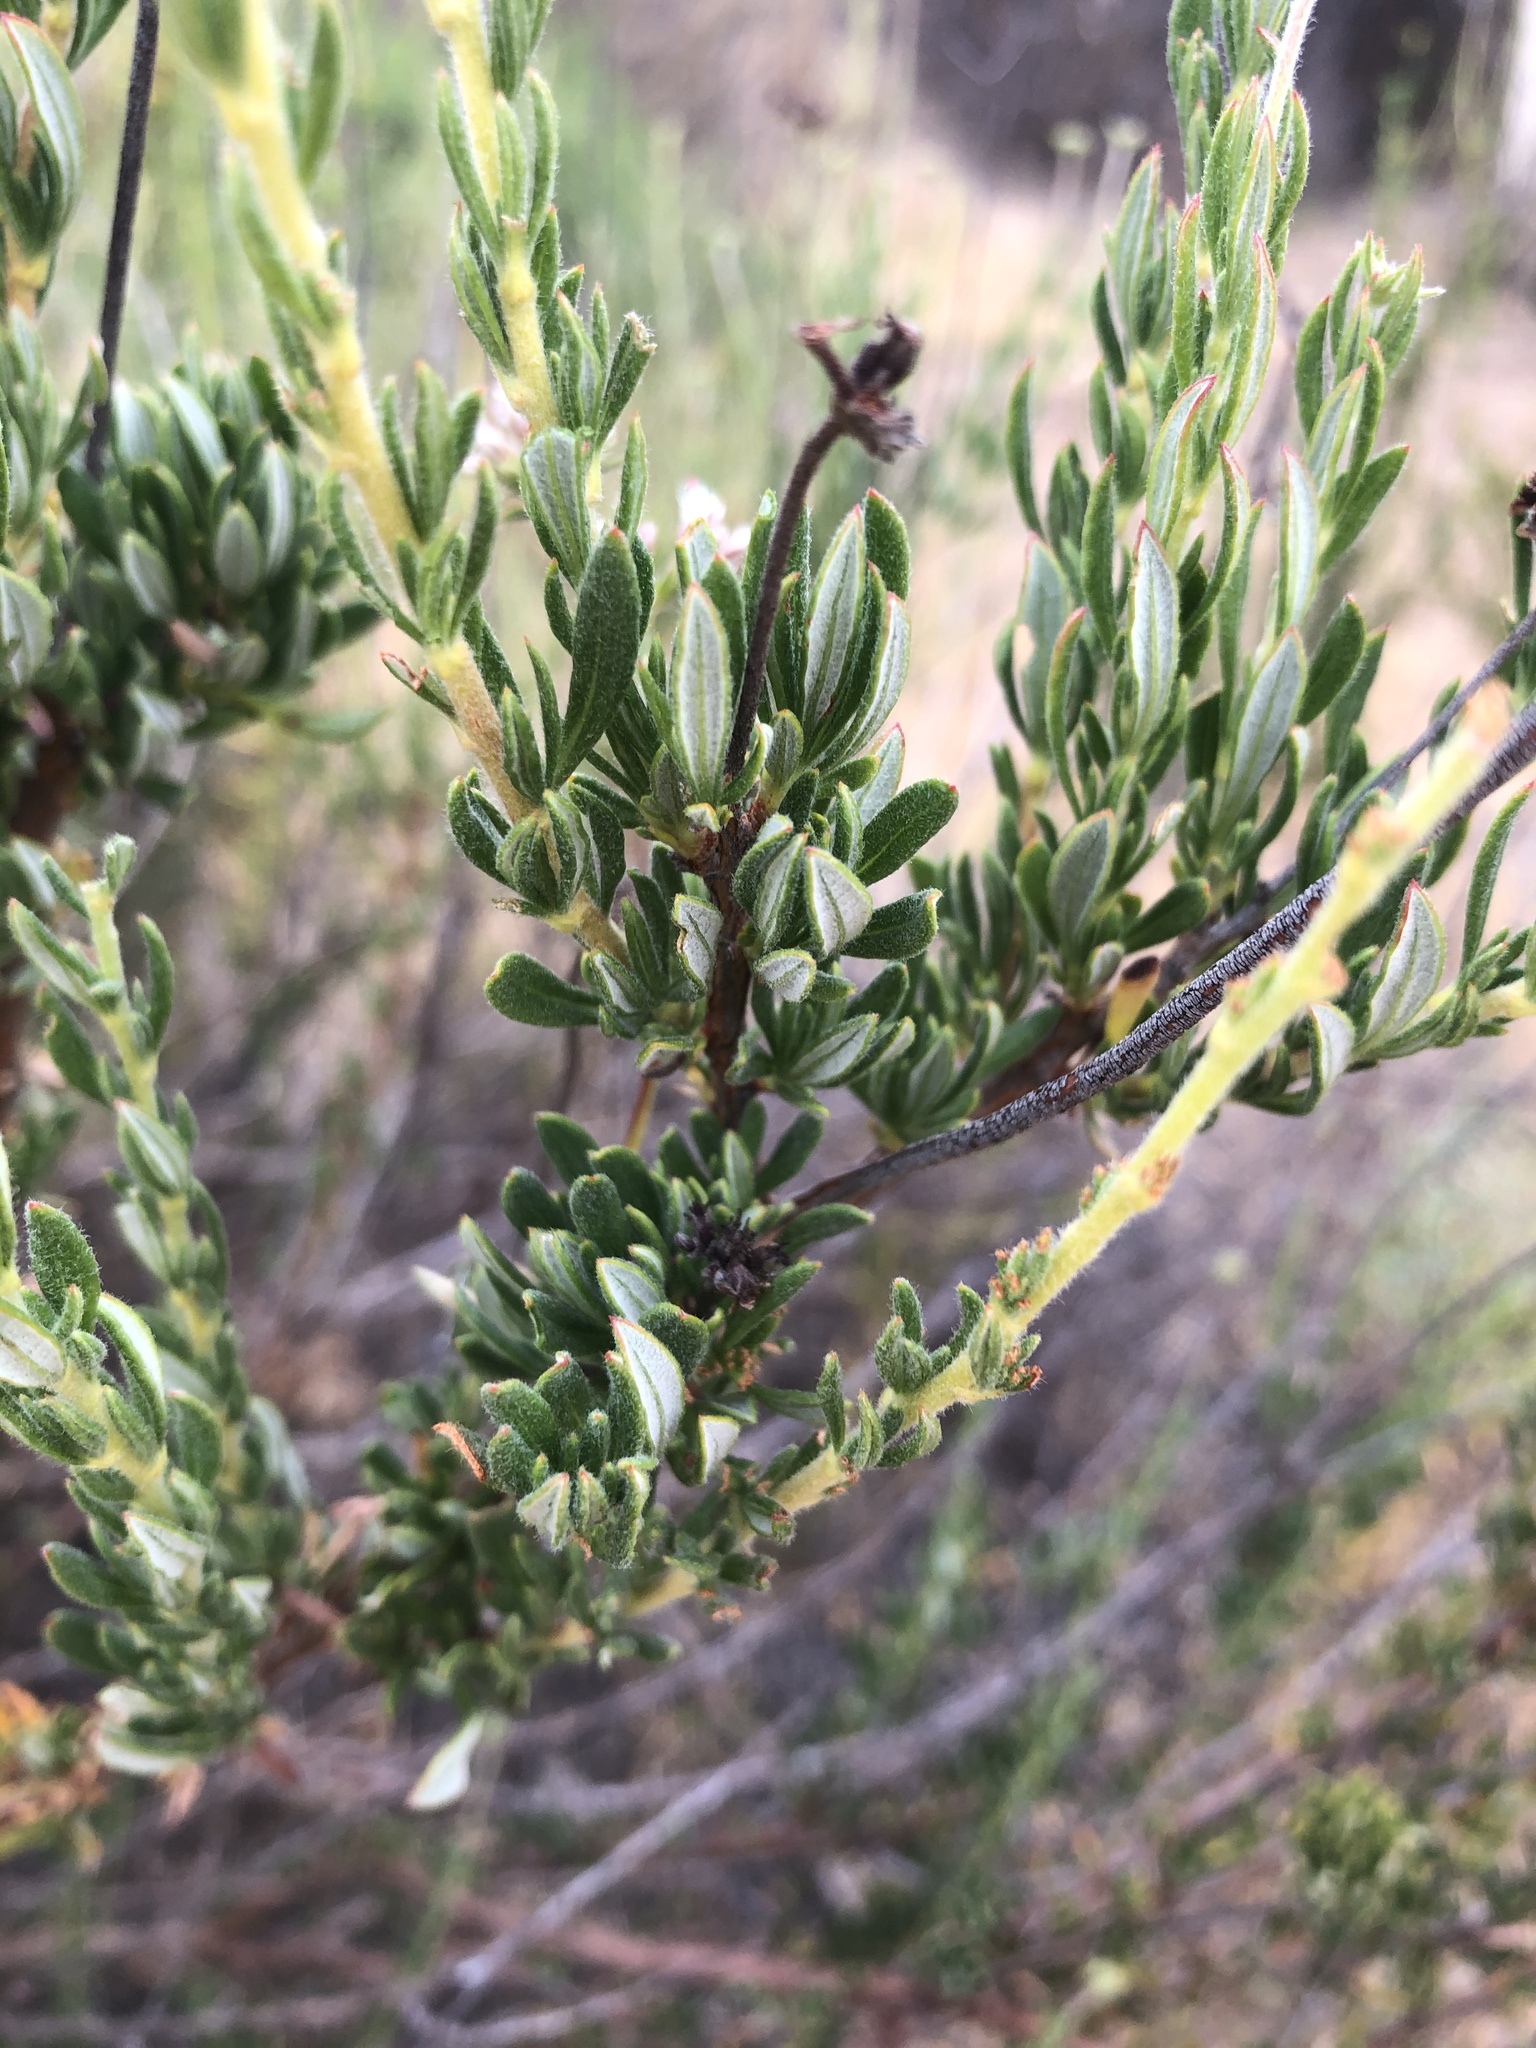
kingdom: Plantae
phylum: Tracheophyta
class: Magnoliopsida
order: Caryophyllales
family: Polygonaceae
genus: Eriogonum
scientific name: Eriogonum fasciculatum
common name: California wild buckwheat
